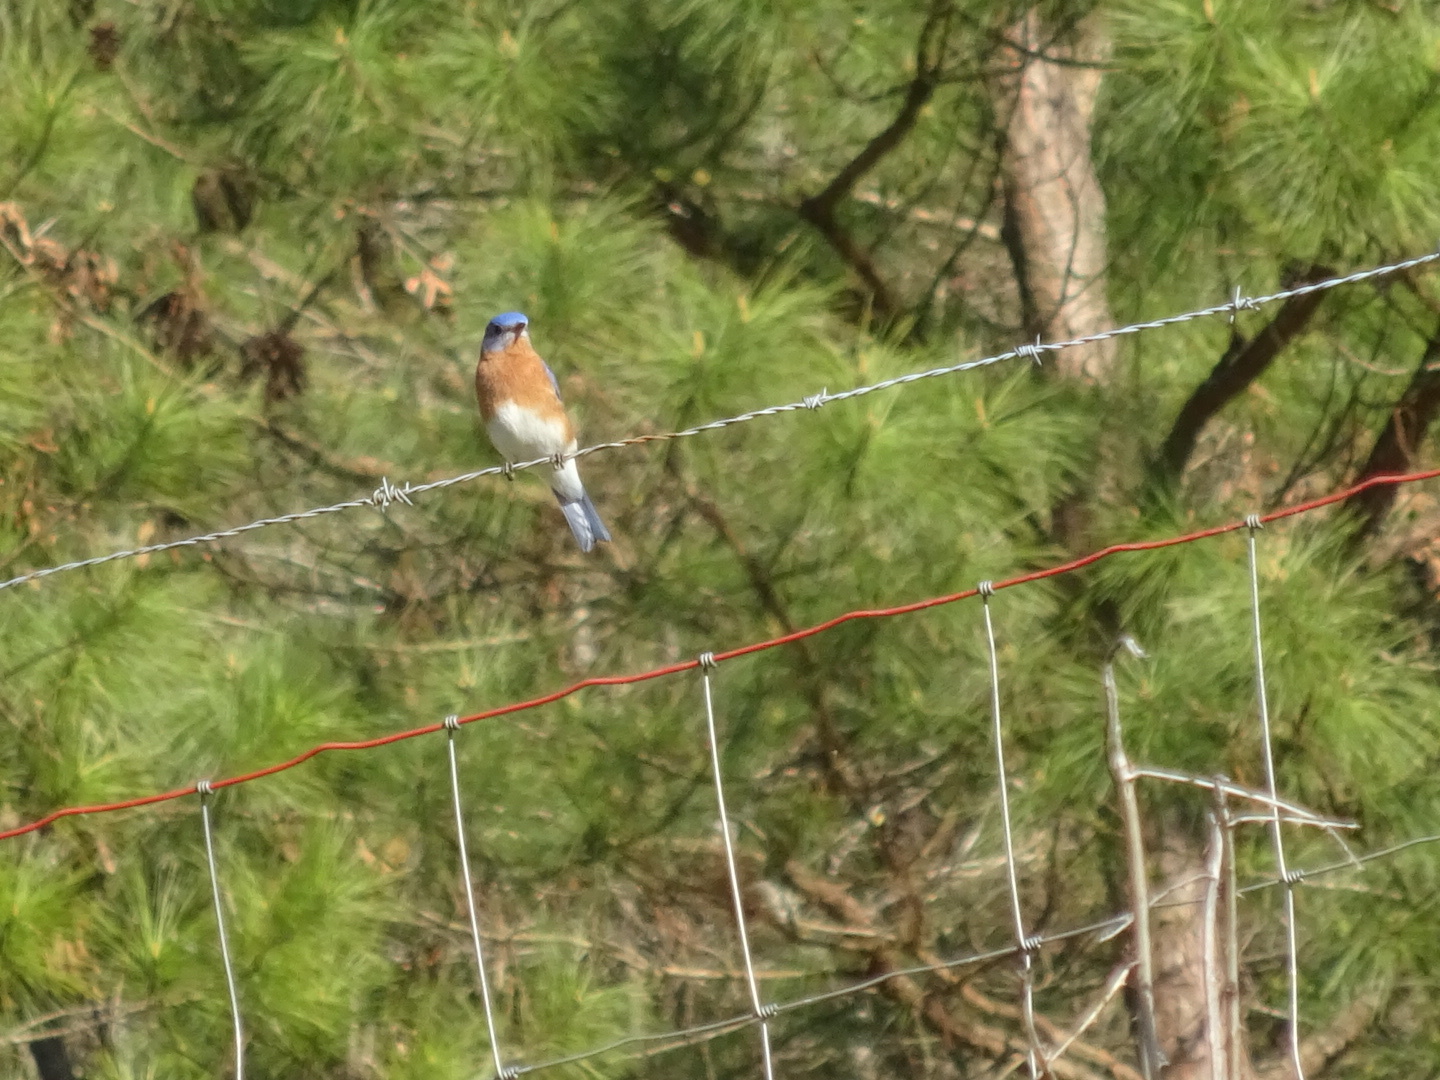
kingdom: Animalia
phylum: Chordata
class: Aves
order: Passeriformes
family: Turdidae
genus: Sialia
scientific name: Sialia sialis
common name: Eastern bluebird
